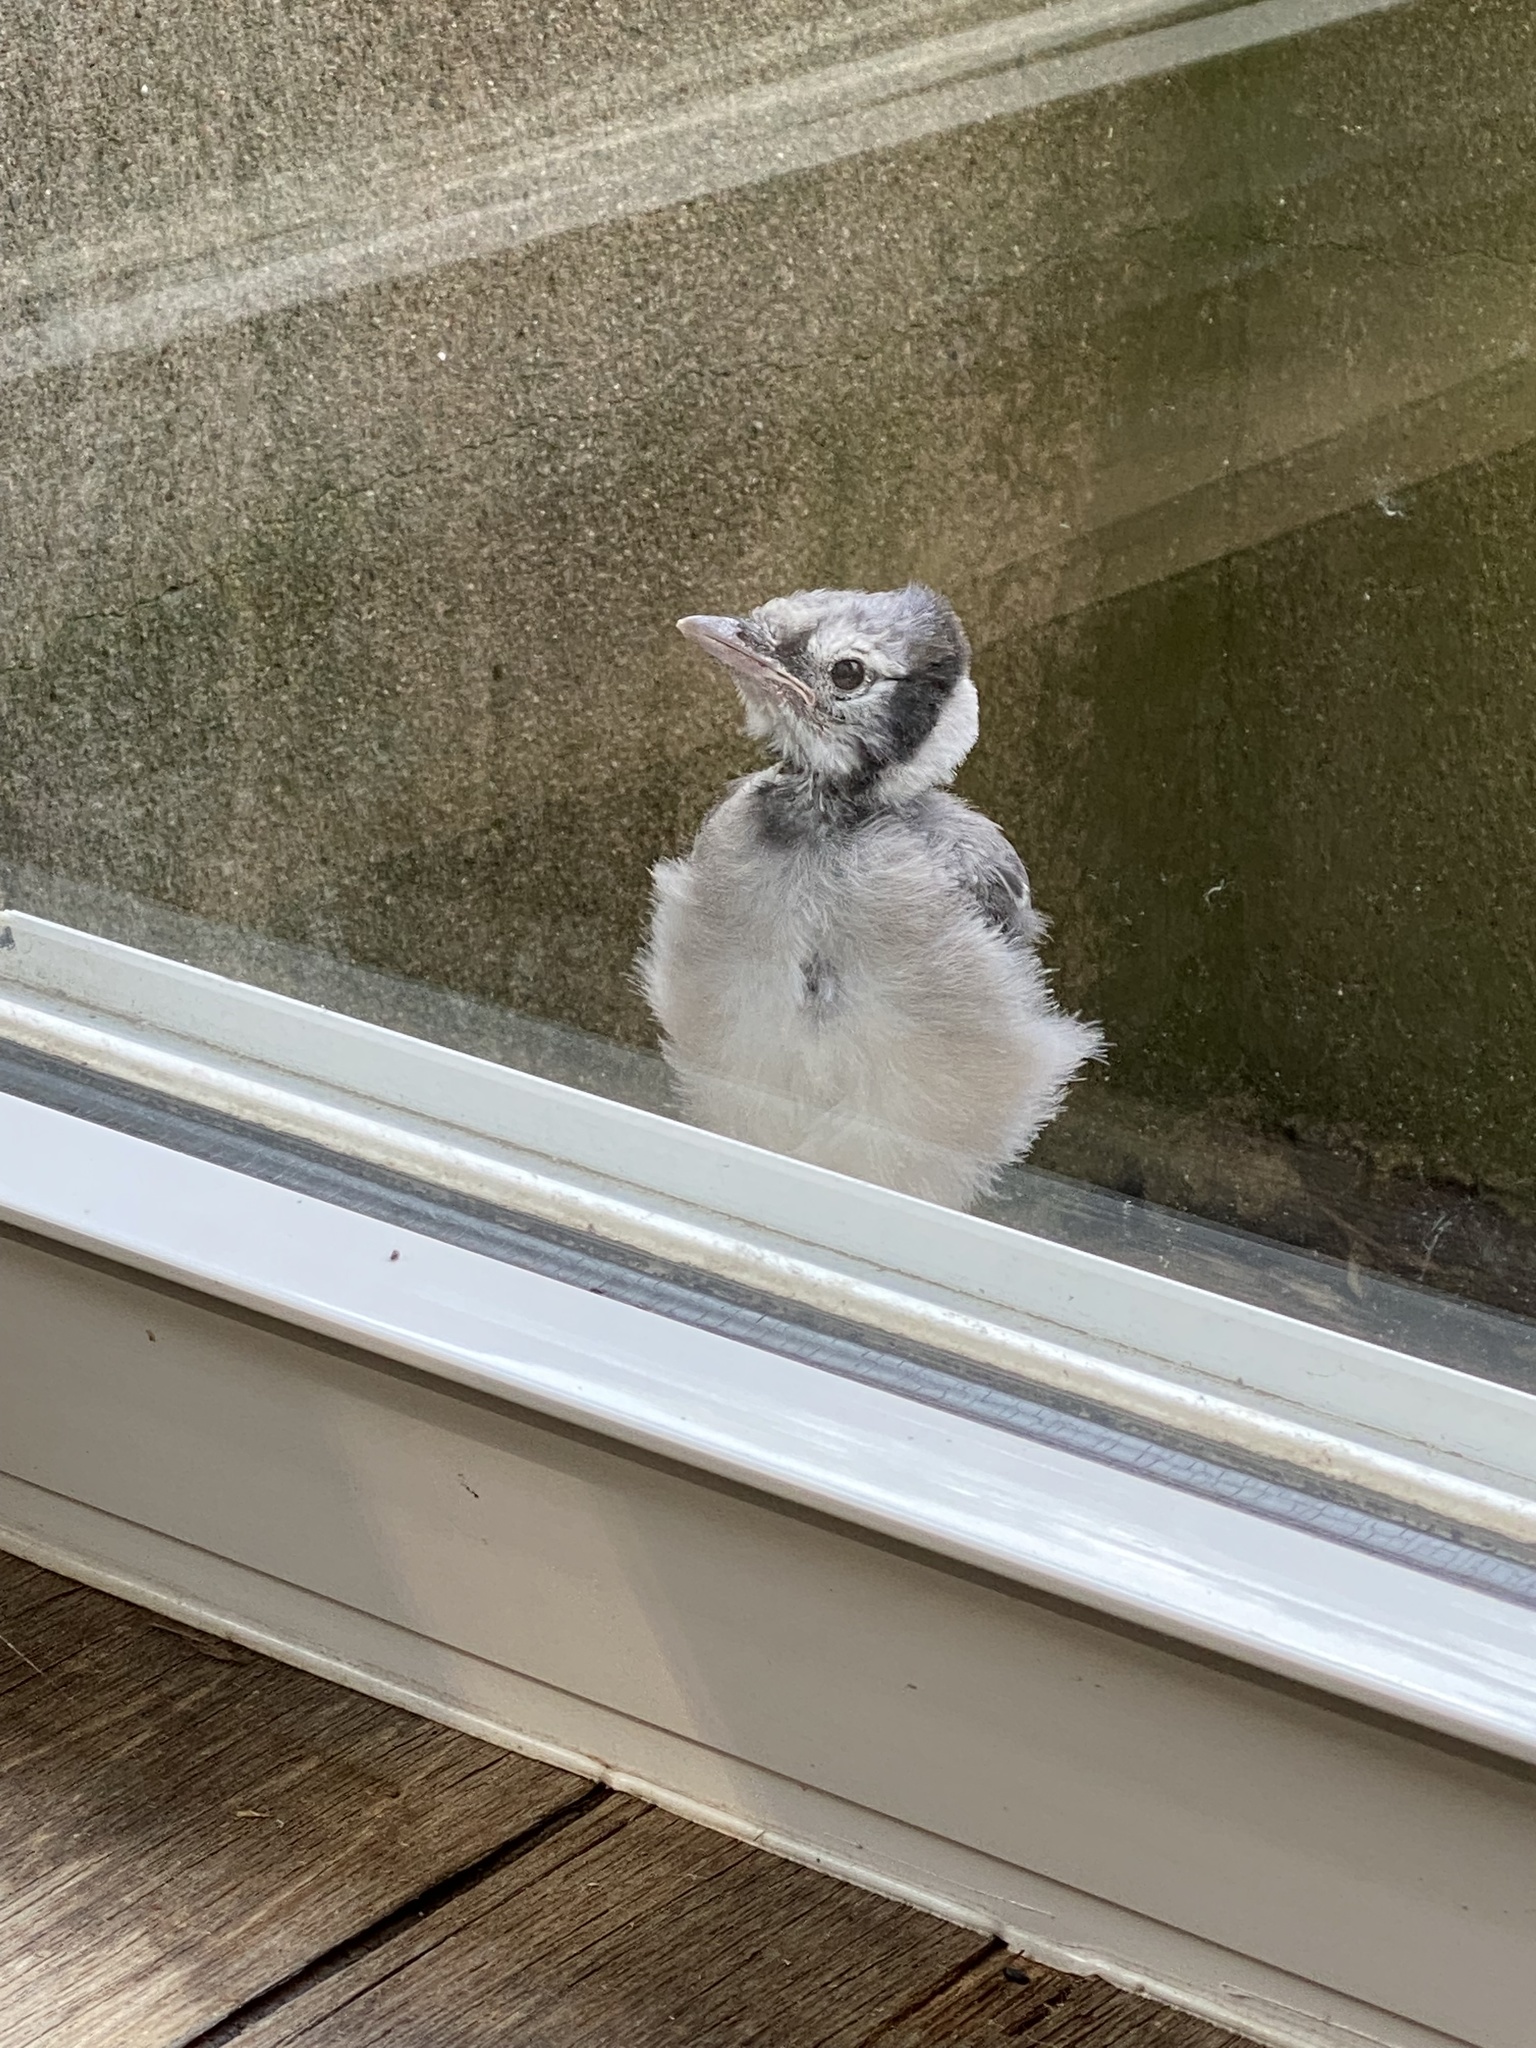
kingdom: Animalia
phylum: Chordata
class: Aves
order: Passeriformes
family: Corvidae
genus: Cyanocitta
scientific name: Cyanocitta cristata
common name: Blue jay
